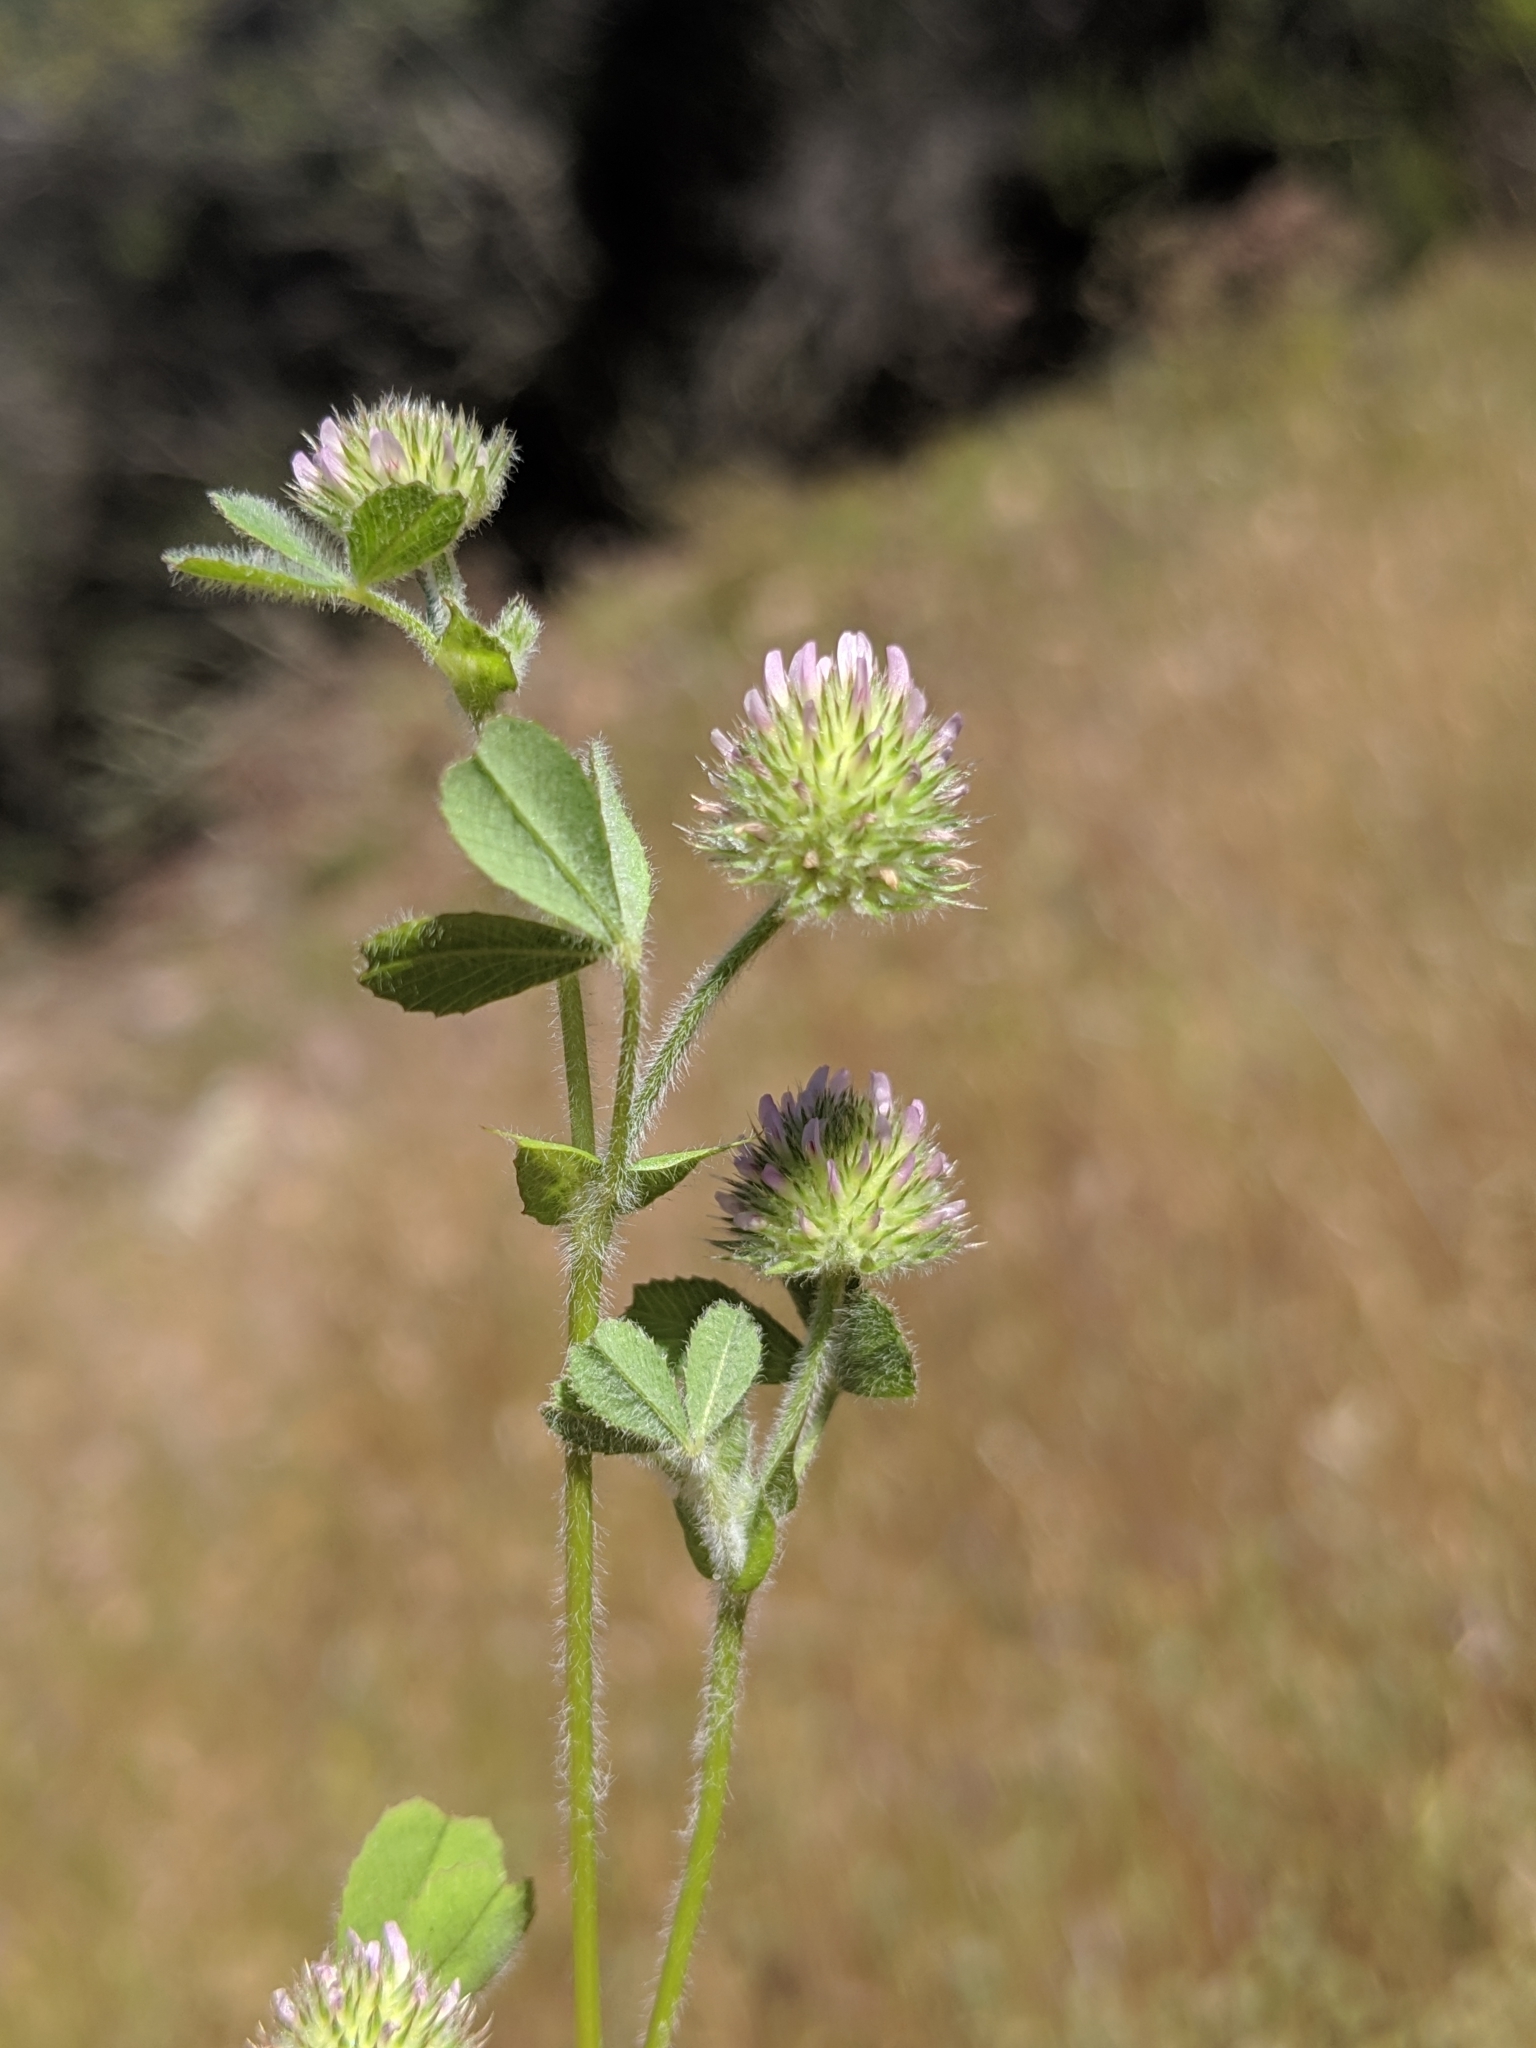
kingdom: Plantae
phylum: Tracheophyta
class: Magnoliopsida
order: Fabales
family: Fabaceae
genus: Trifolium
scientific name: Trifolium microcephalum
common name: Maiden clover
